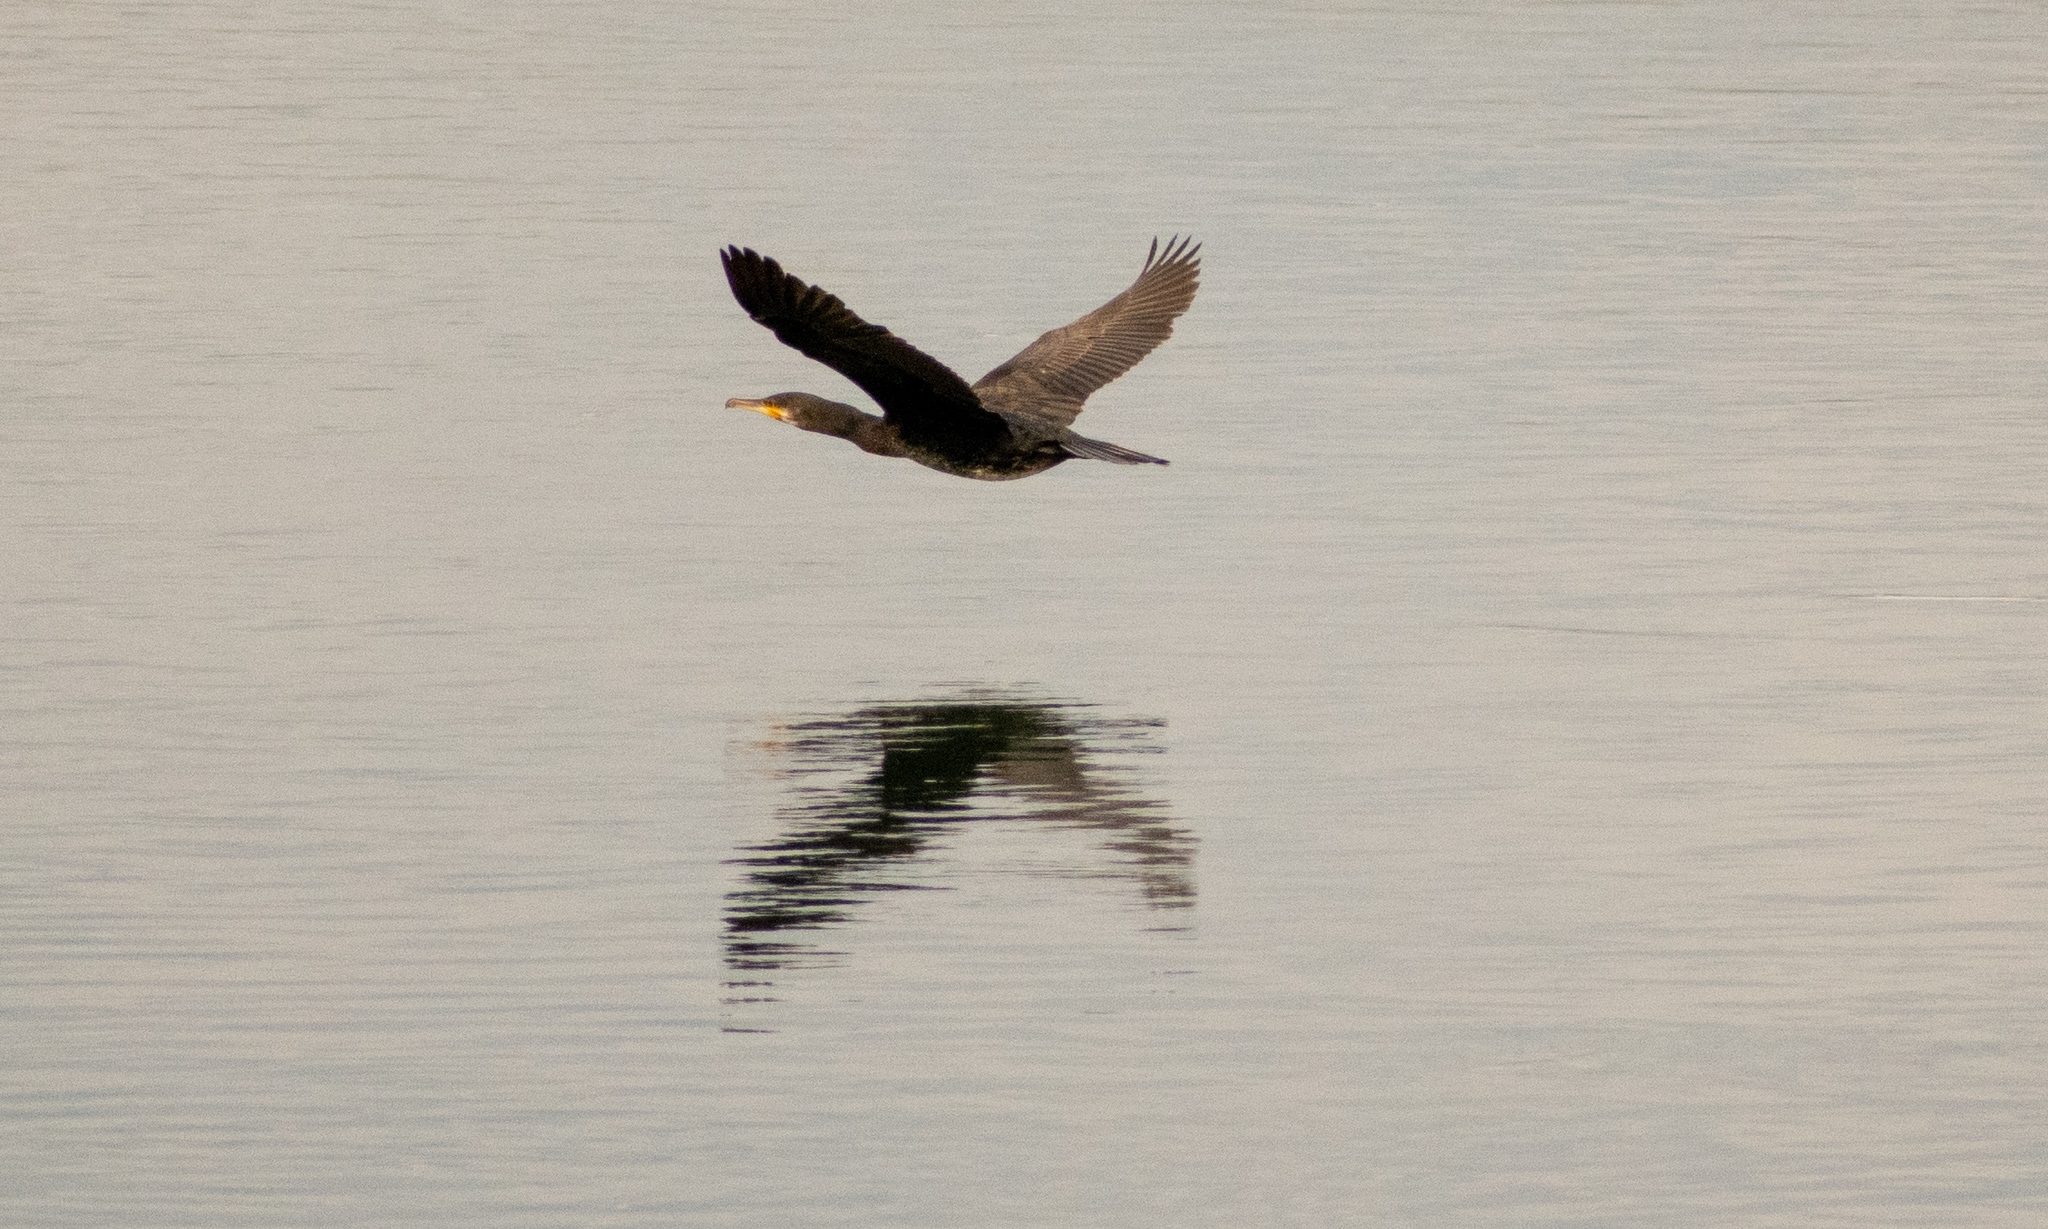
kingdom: Animalia
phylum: Chordata
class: Aves
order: Suliformes
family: Phalacrocoracidae
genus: Phalacrocorax
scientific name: Phalacrocorax carbo
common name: Great cormorant
